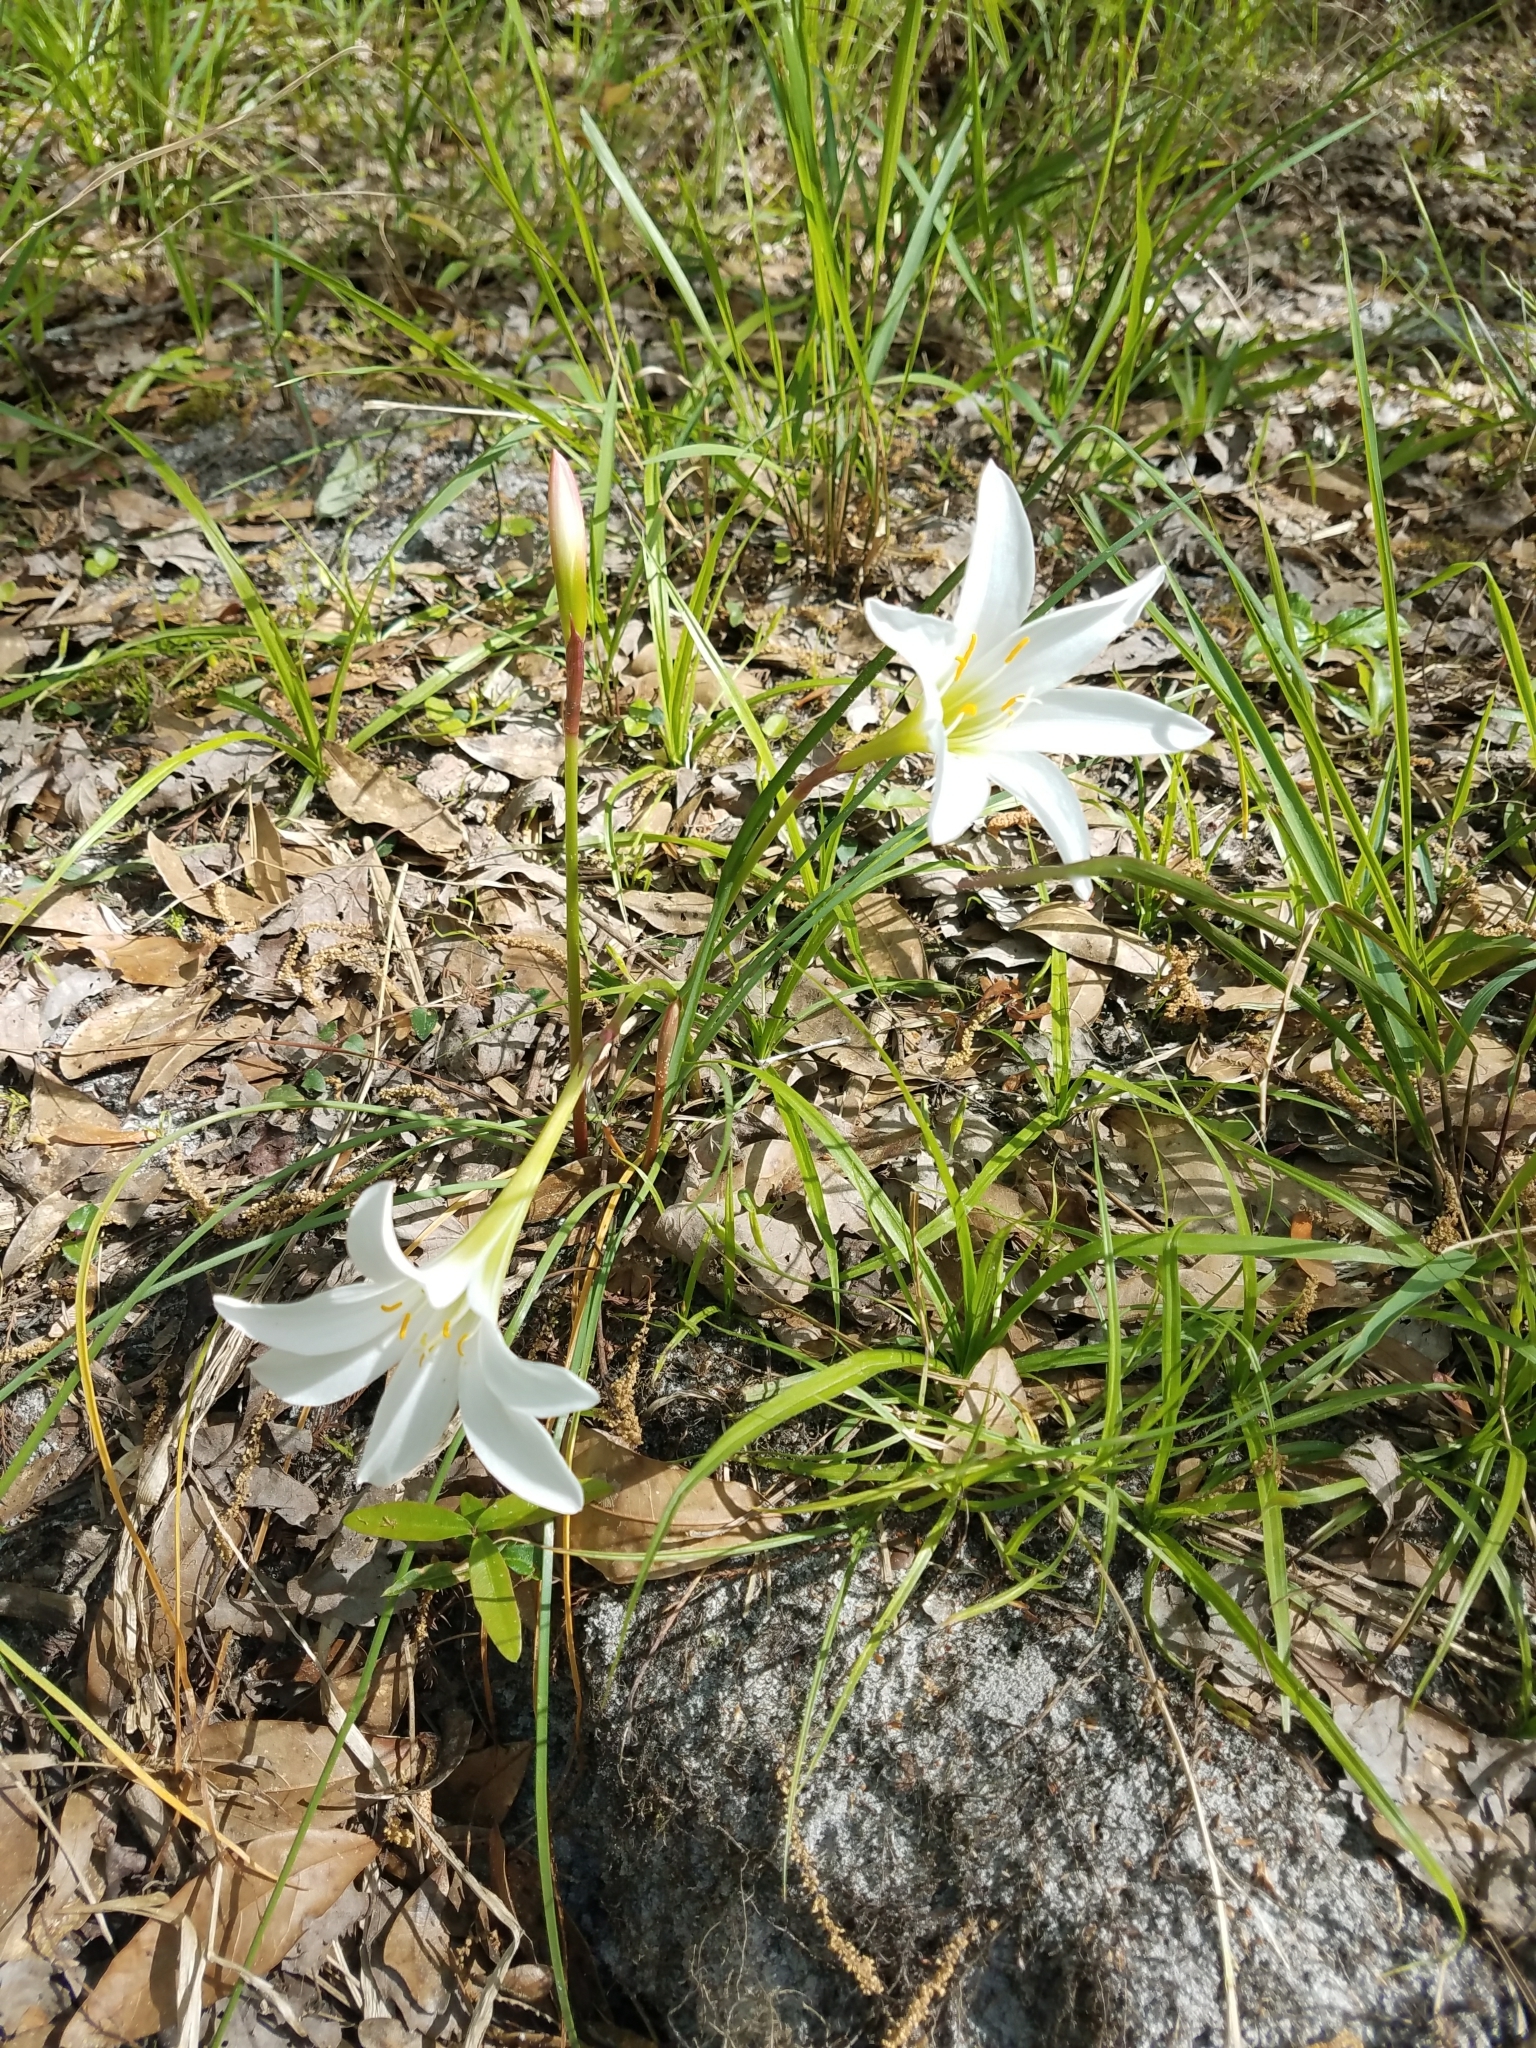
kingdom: Plantae
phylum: Tracheophyta
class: Liliopsida
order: Asparagales
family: Amaryllidaceae
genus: Zephyranthes
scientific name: Zephyranthes atamasco
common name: Atamasco lily
